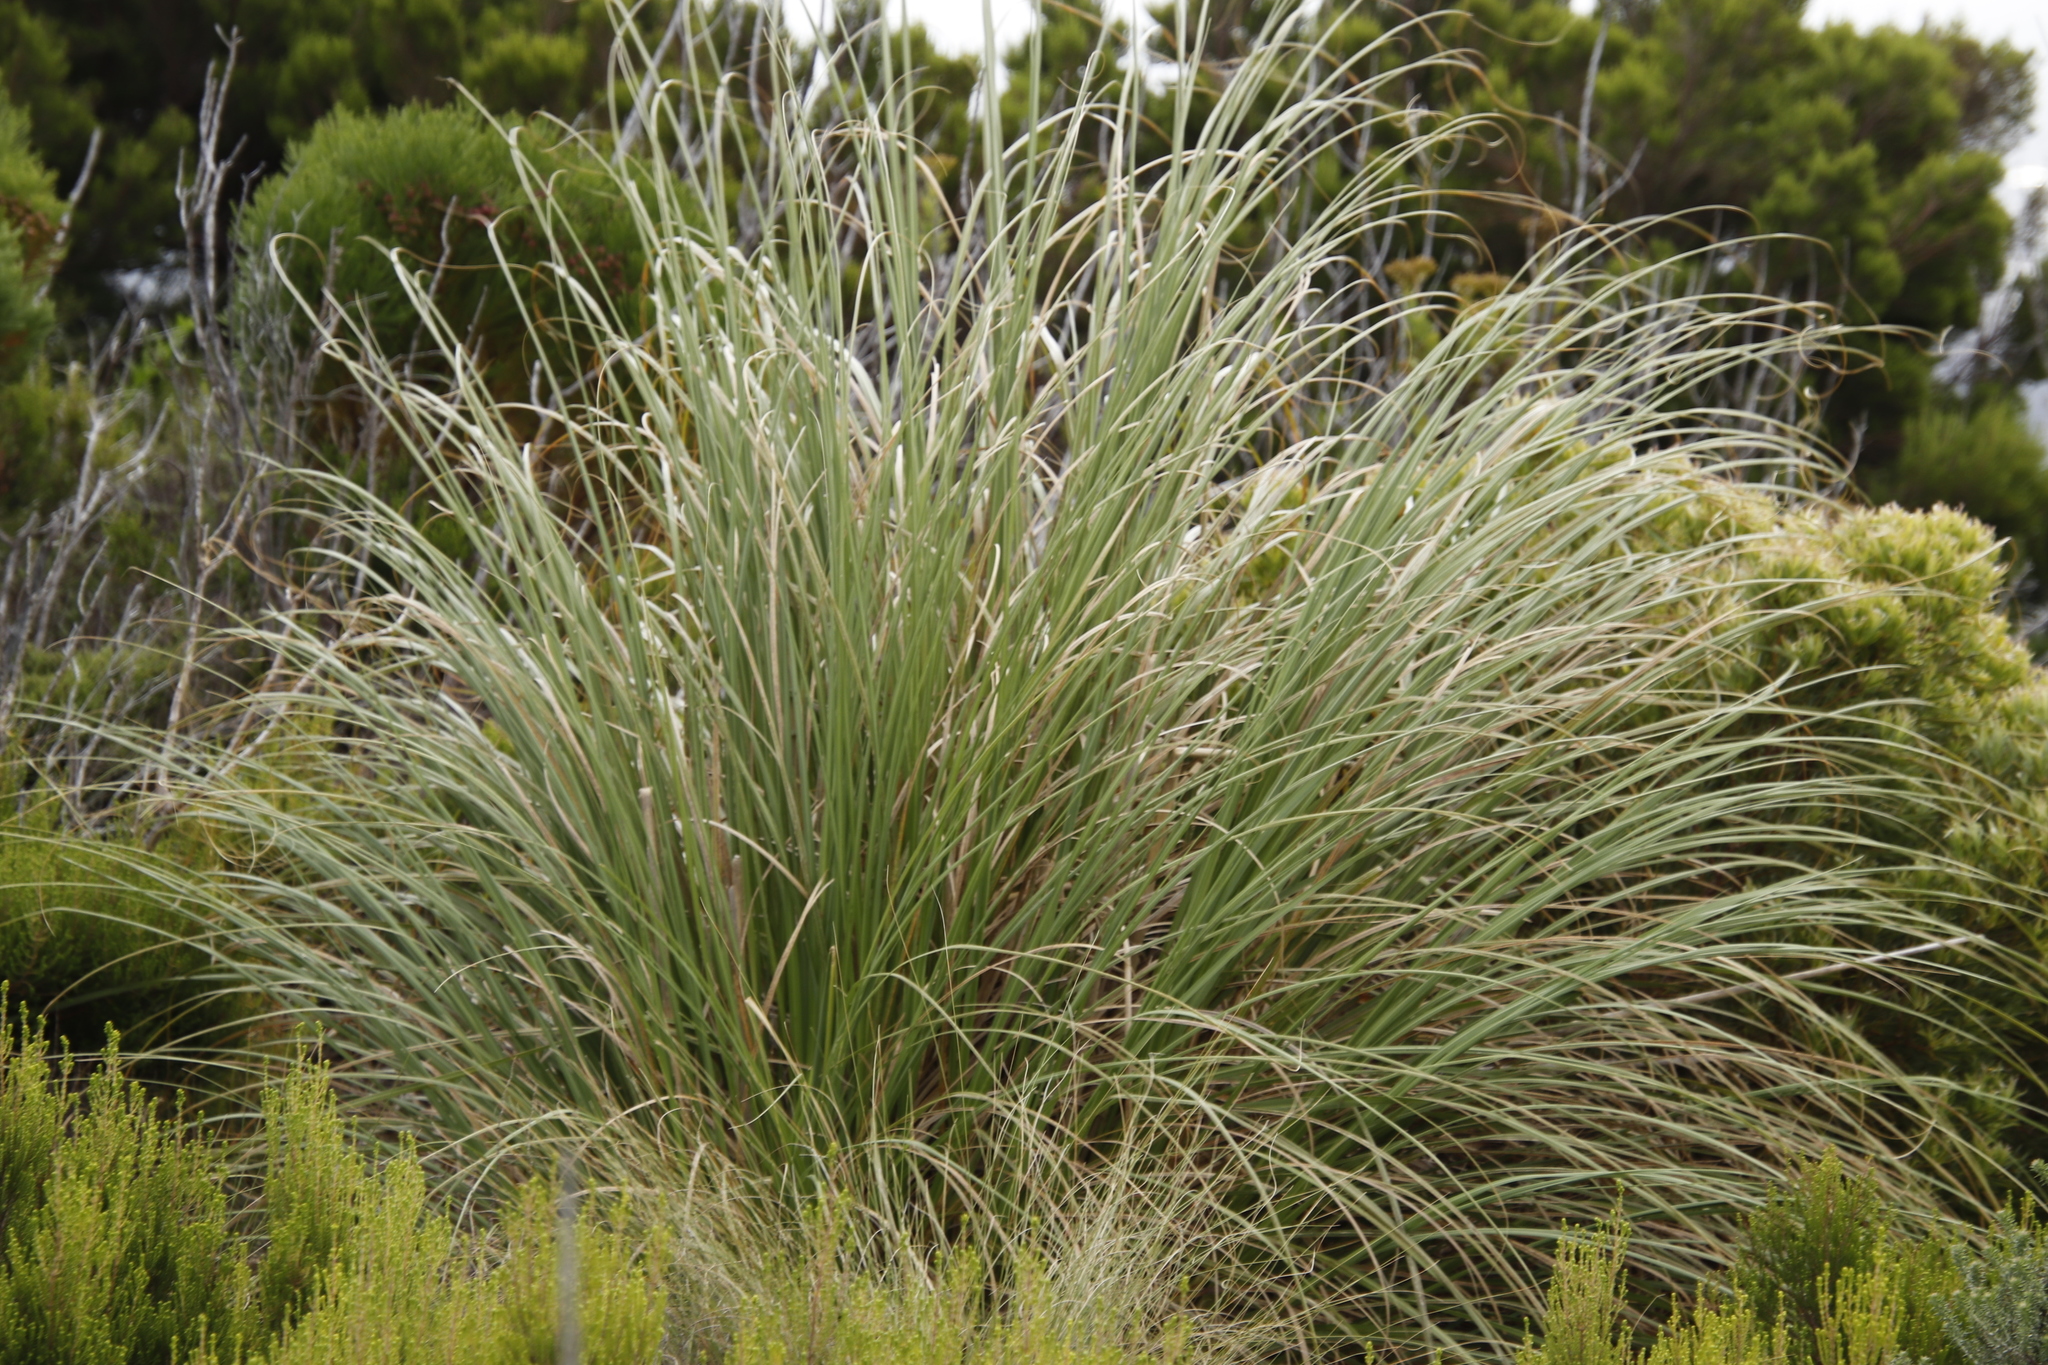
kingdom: Plantae
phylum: Tracheophyta
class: Liliopsida
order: Poales
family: Poaceae
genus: Cortaderia
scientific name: Cortaderia selloana
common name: Uruguayan pampas grass
